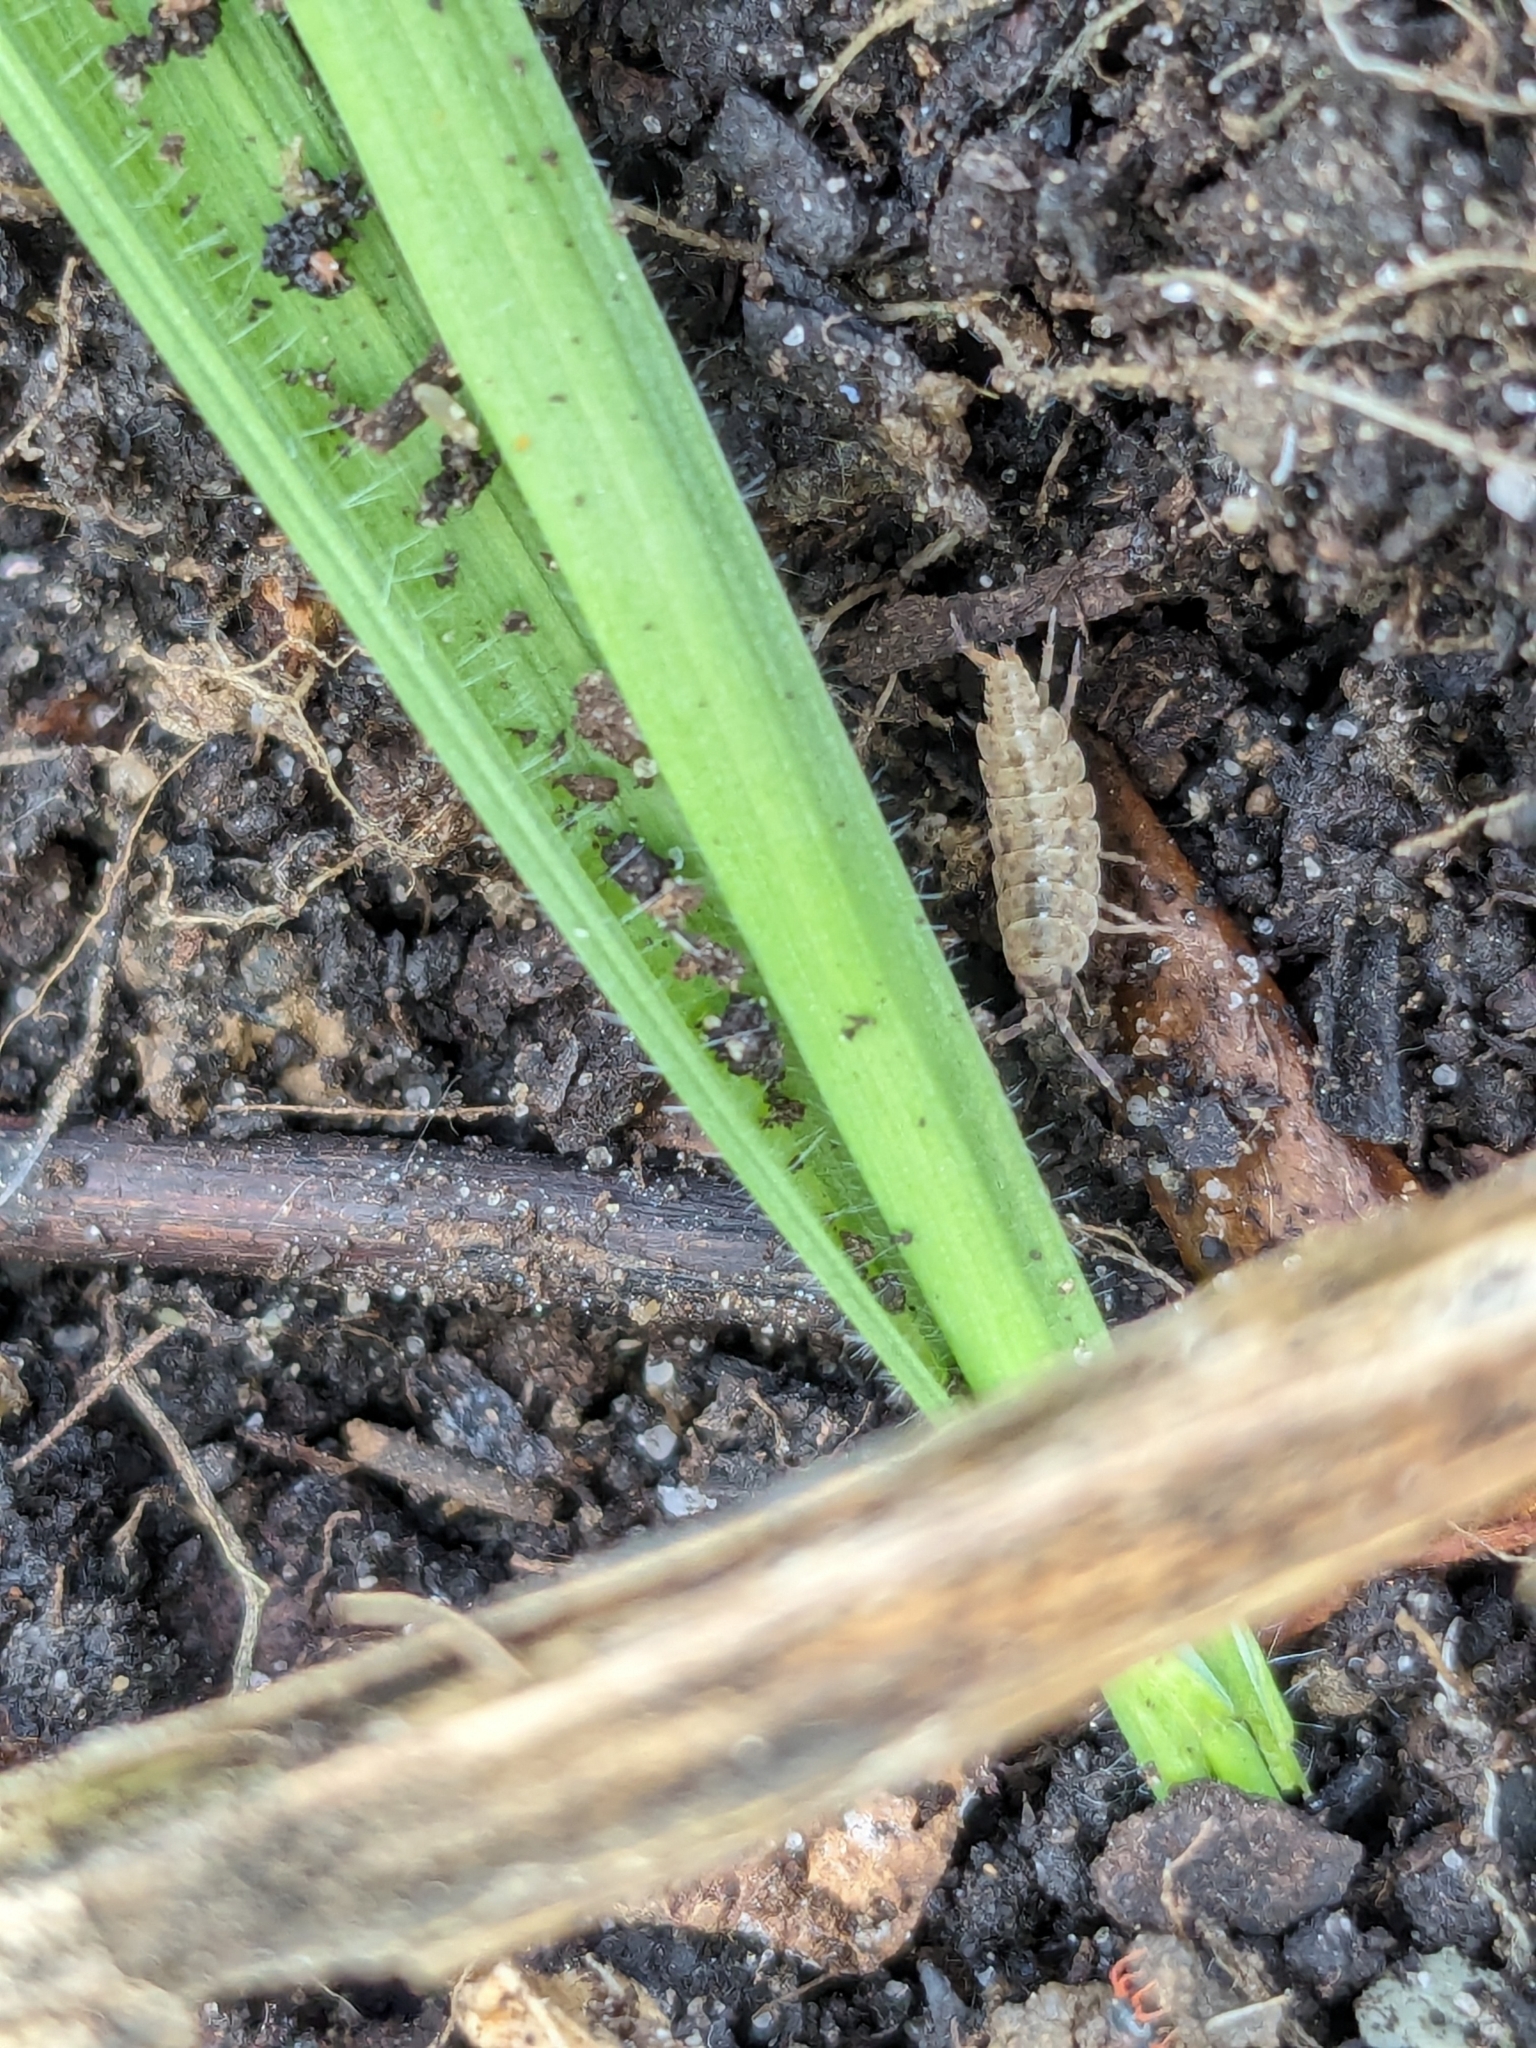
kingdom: Animalia
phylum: Arthropoda
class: Malacostraca
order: Isopoda
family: Porcellionidae
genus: Porcellionides
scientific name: Porcellionides cingendus
